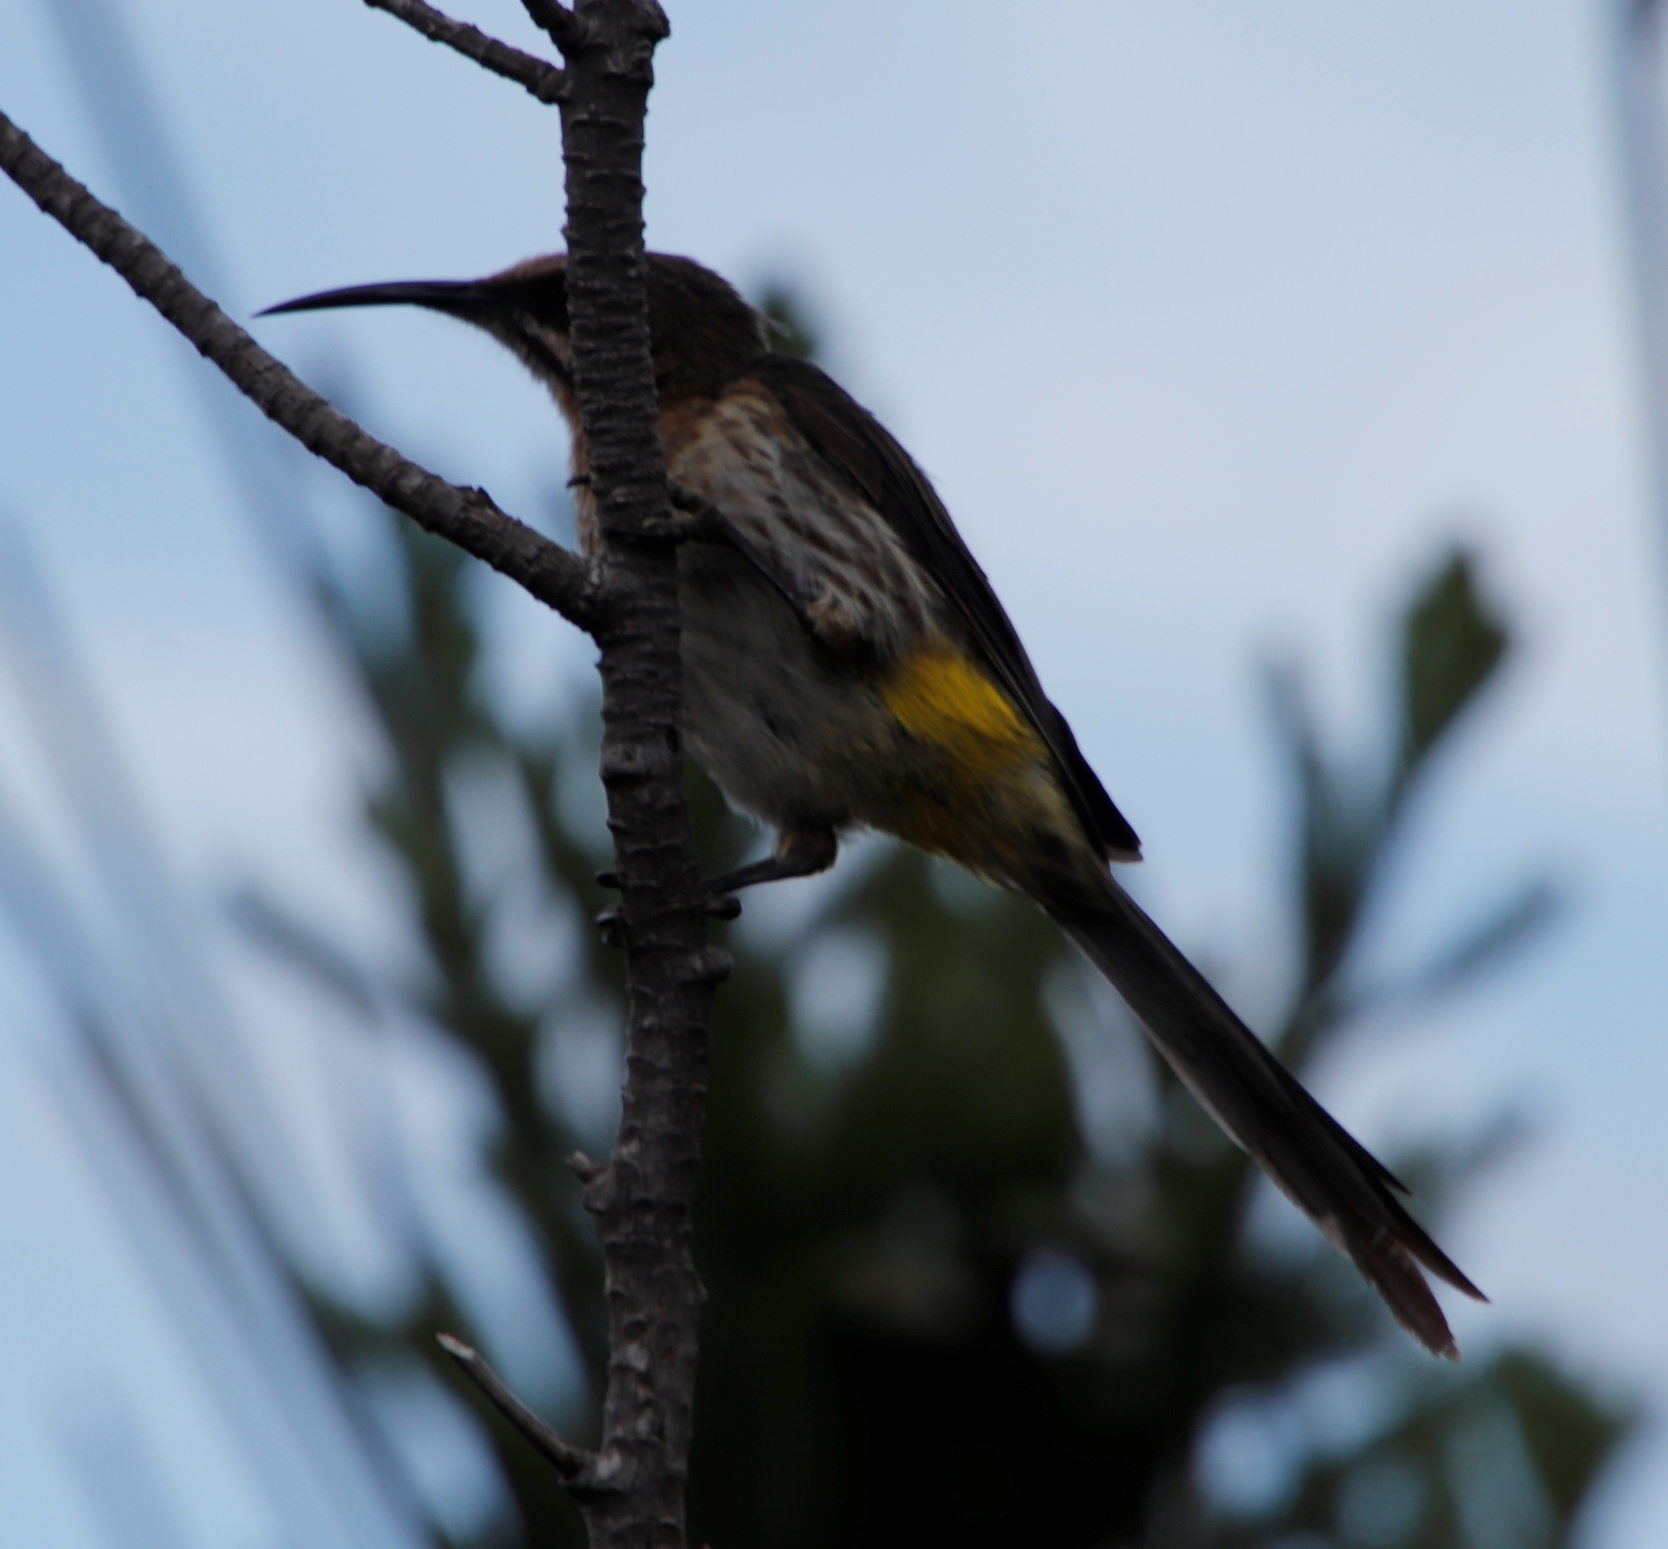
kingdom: Animalia
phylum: Chordata
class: Aves
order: Passeriformes
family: Promeropidae
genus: Promerops
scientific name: Promerops cafer
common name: Cape sugarbird
